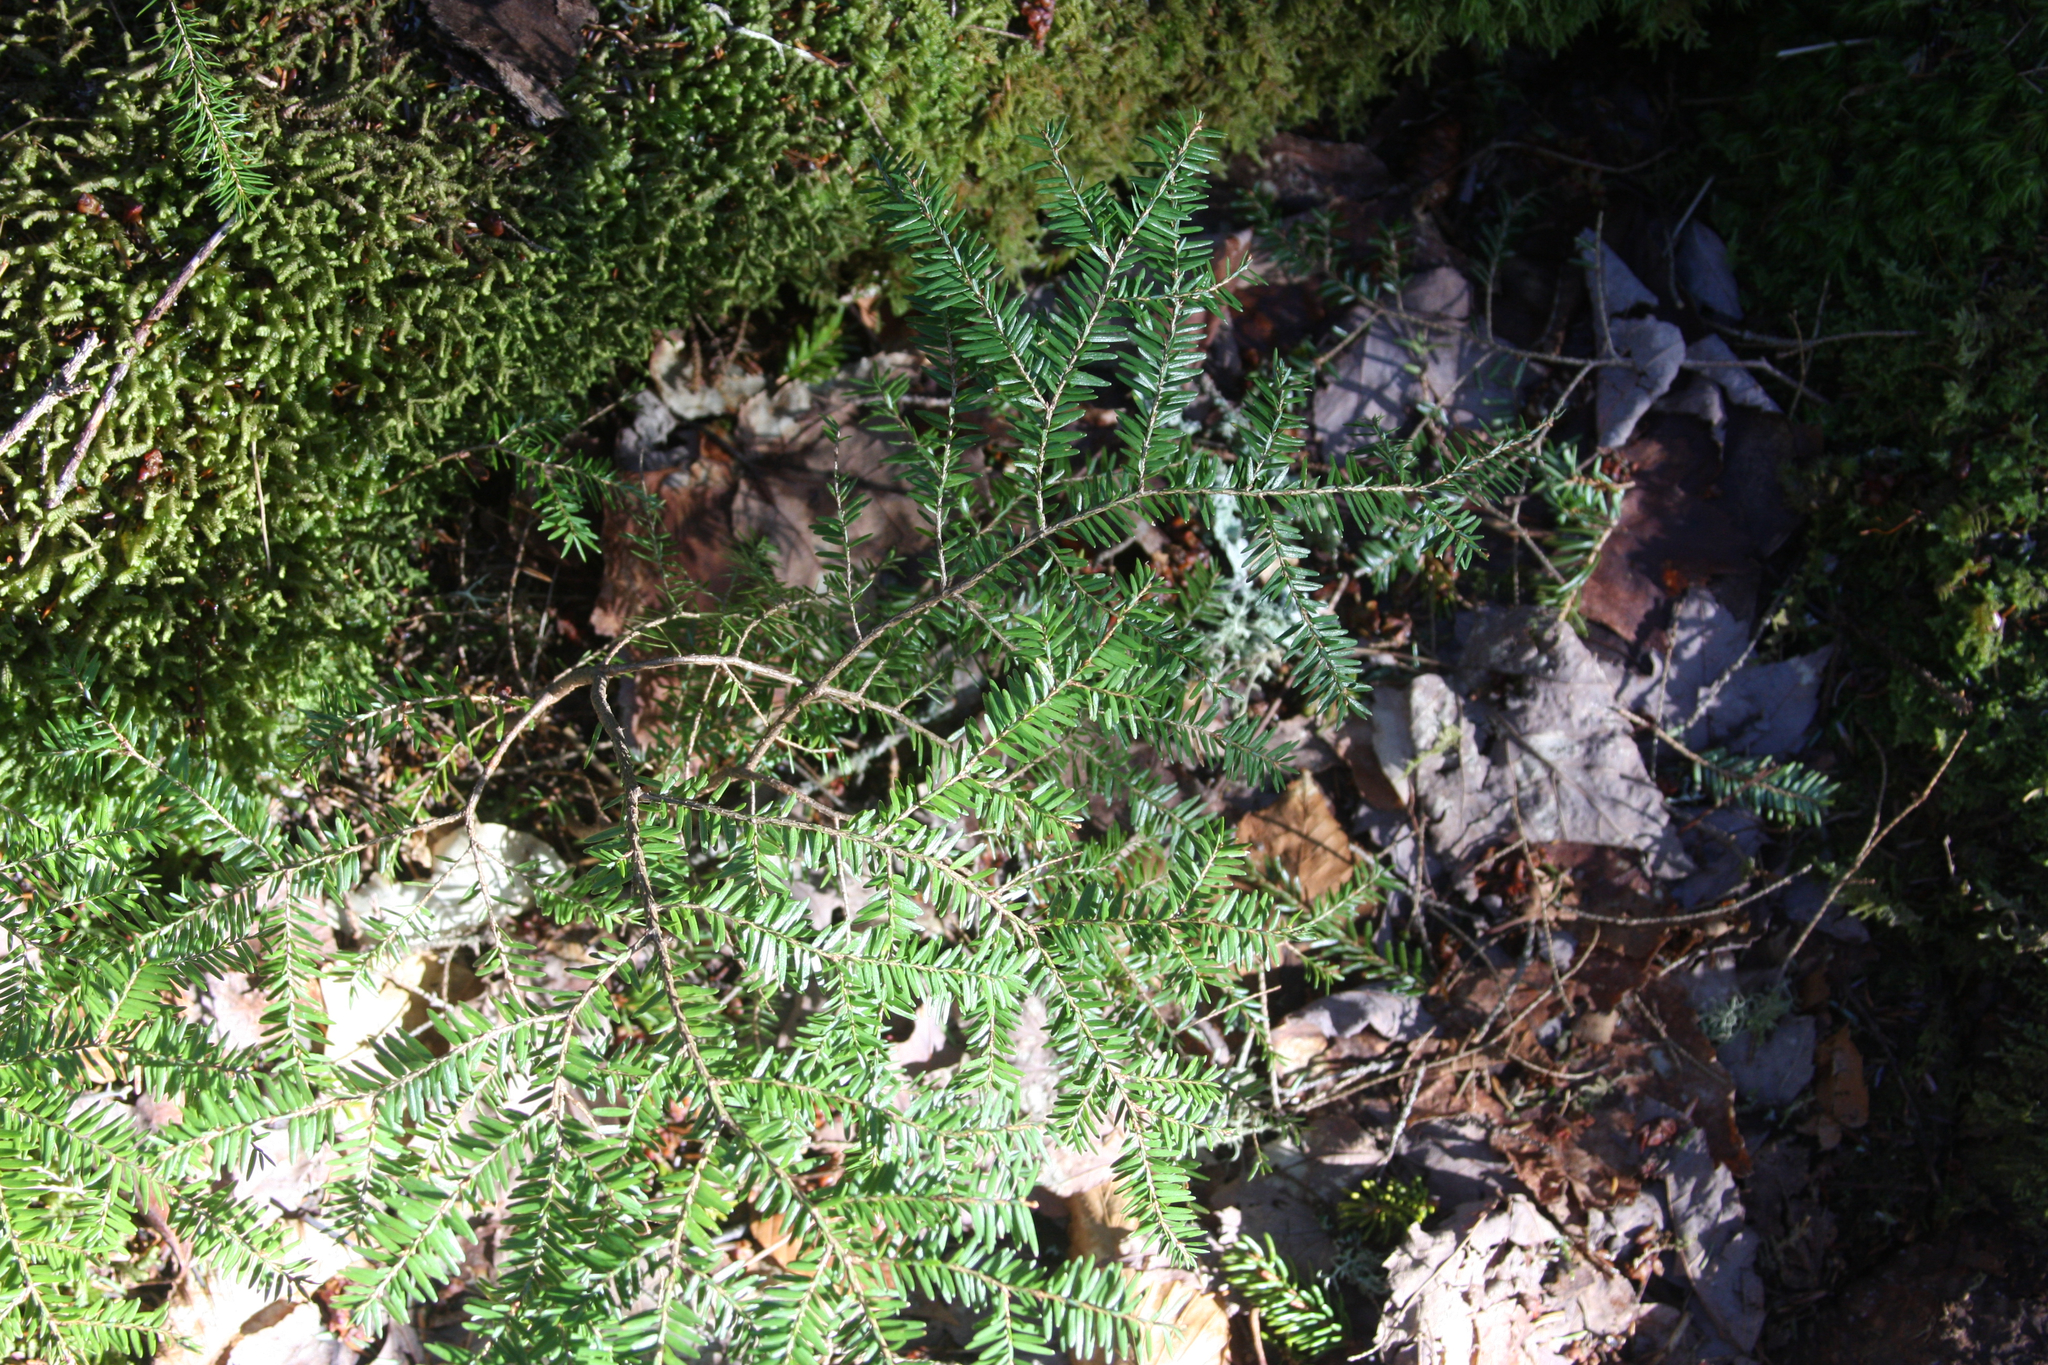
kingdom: Plantae
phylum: Tracheophyta
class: Pinopsida
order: Pinales
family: Pinaceae
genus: Tsuga
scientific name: Tsuga canadensis
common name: Eastern hemlock
